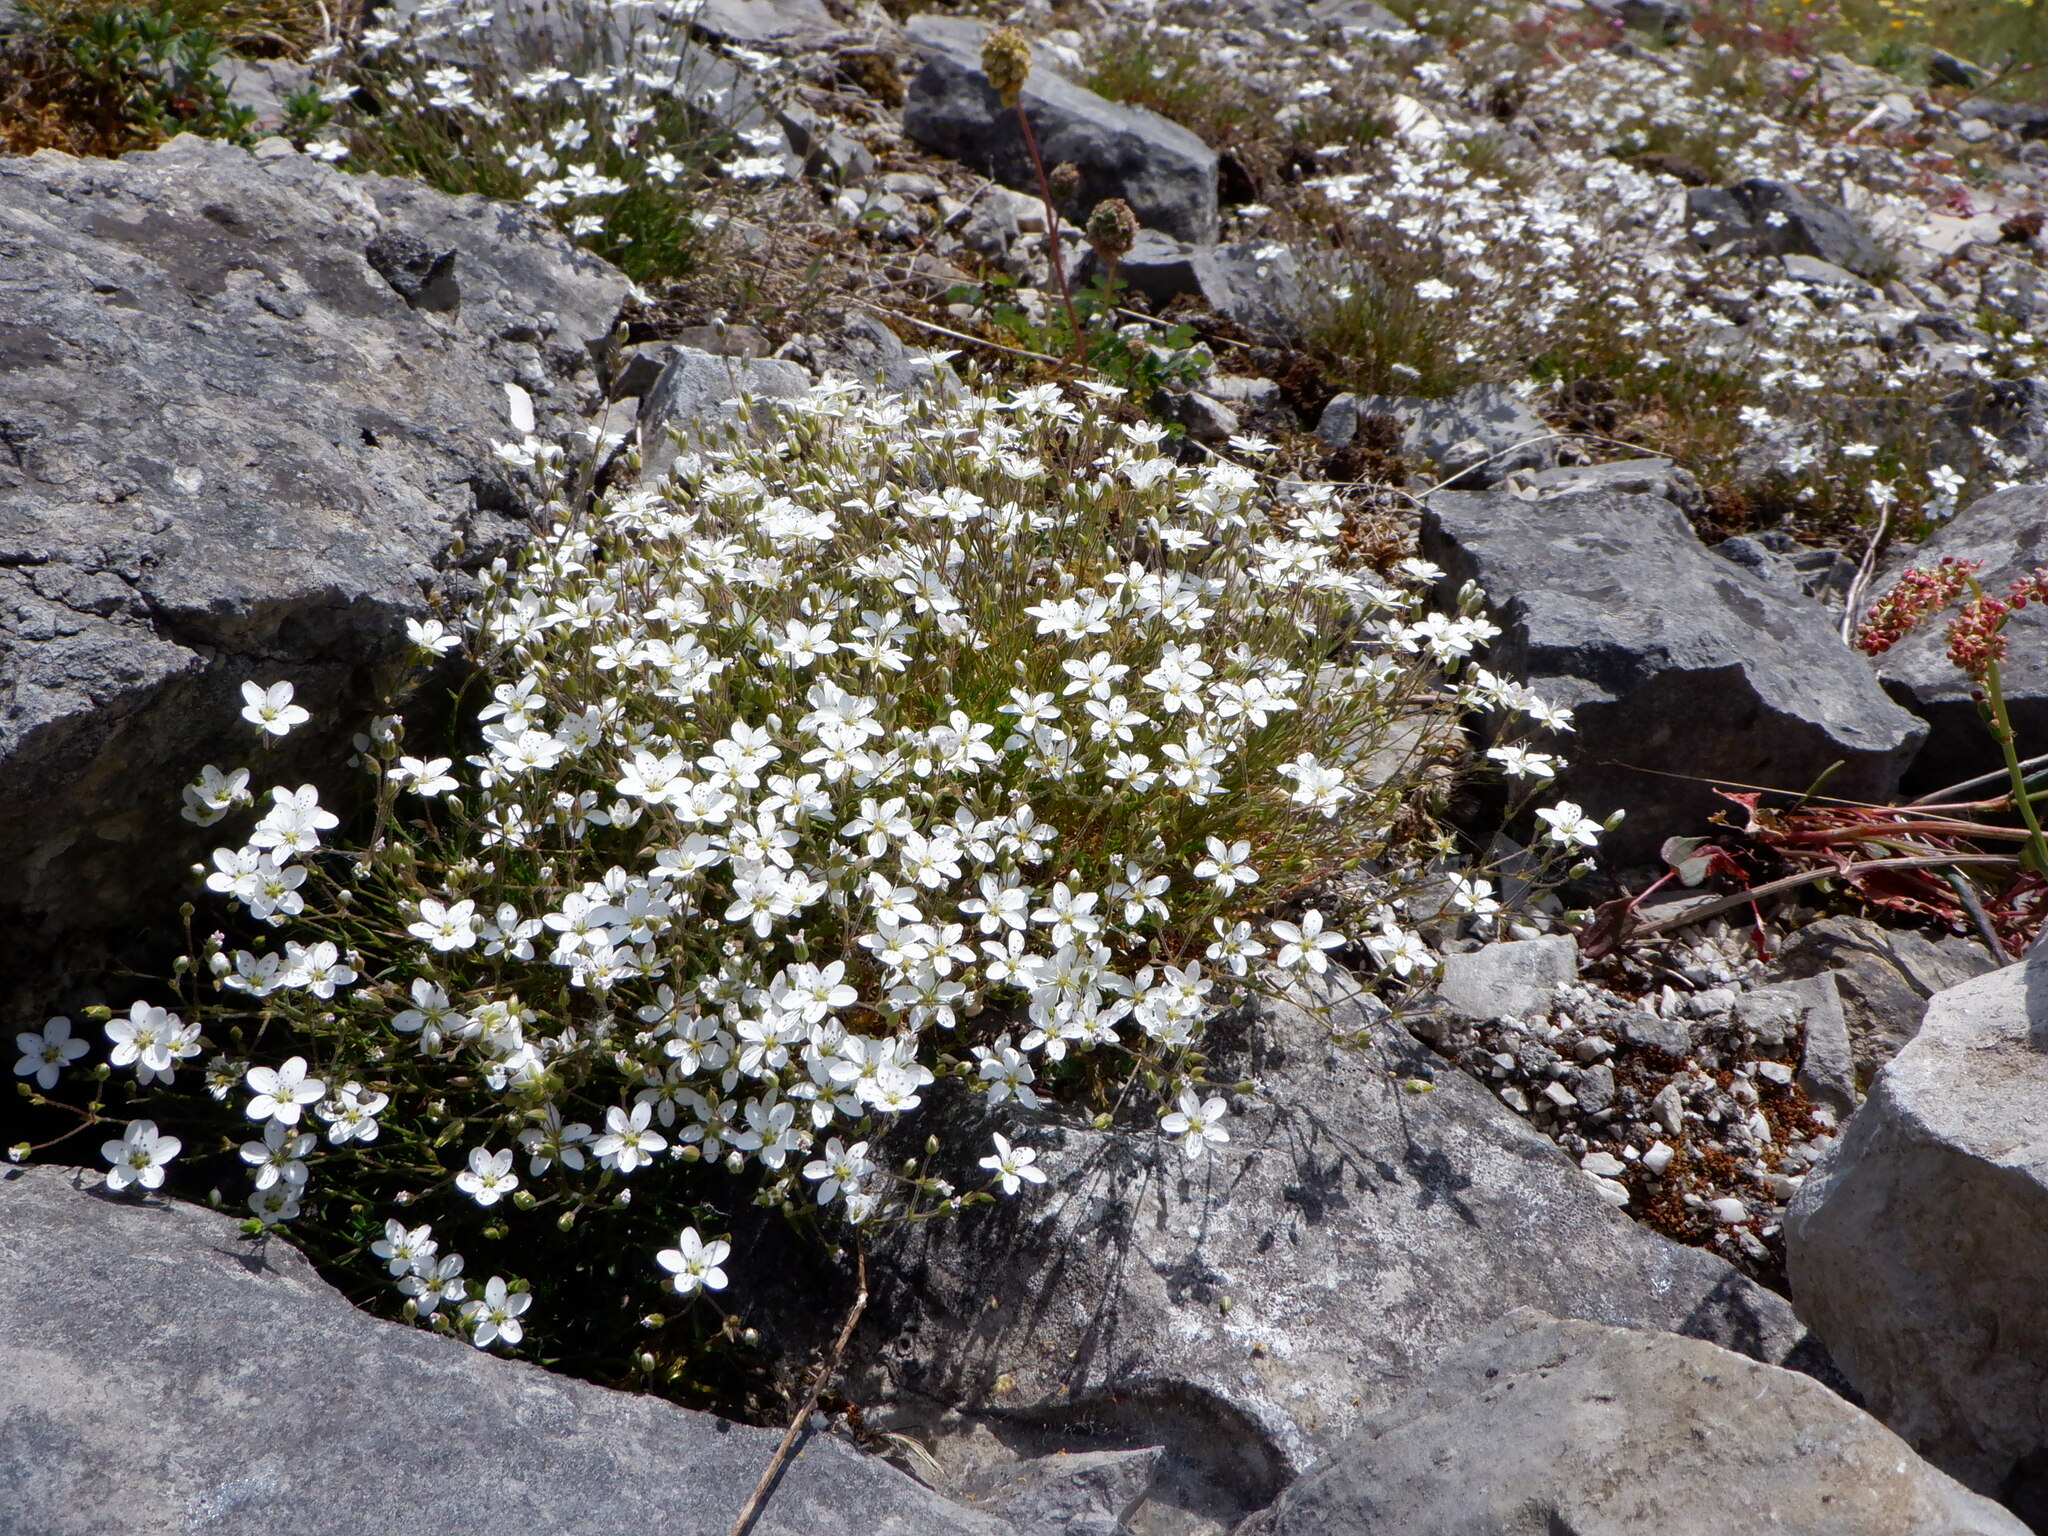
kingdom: Plantae
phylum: Tracheophyta
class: Magnoliopsida
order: Caryophyllales
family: Caryophyllaceae
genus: Sabulina
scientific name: Sabulina verna
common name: Spring sandwort
